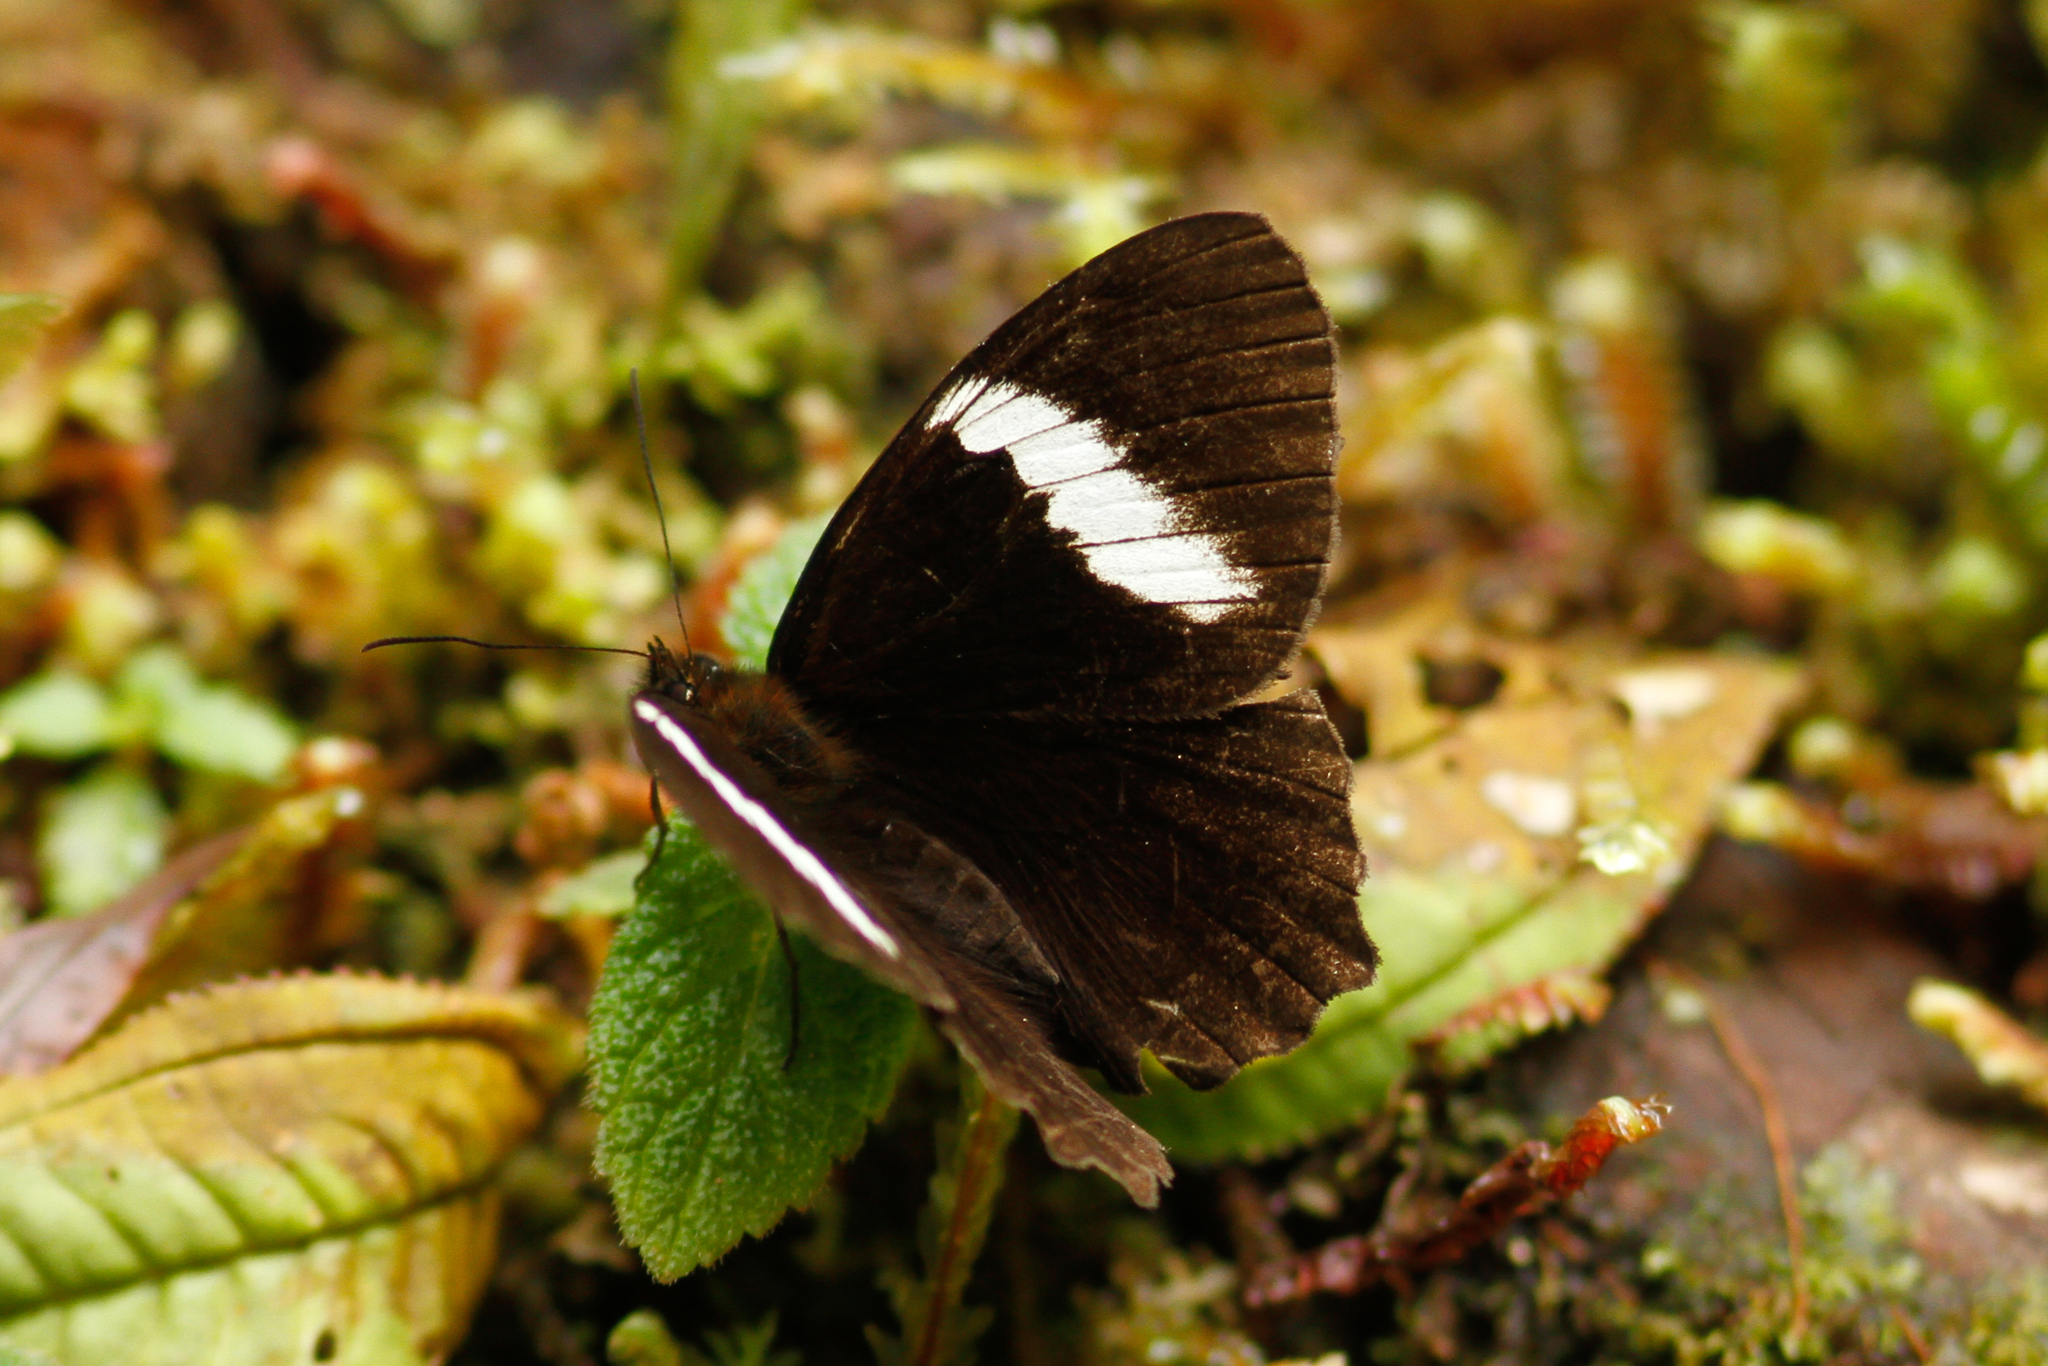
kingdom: Animalia
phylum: Arthropoda
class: Insecta
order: Lepidoptera
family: Nymphalidae
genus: Pedaliodes
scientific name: Pedaliodes peucestas
